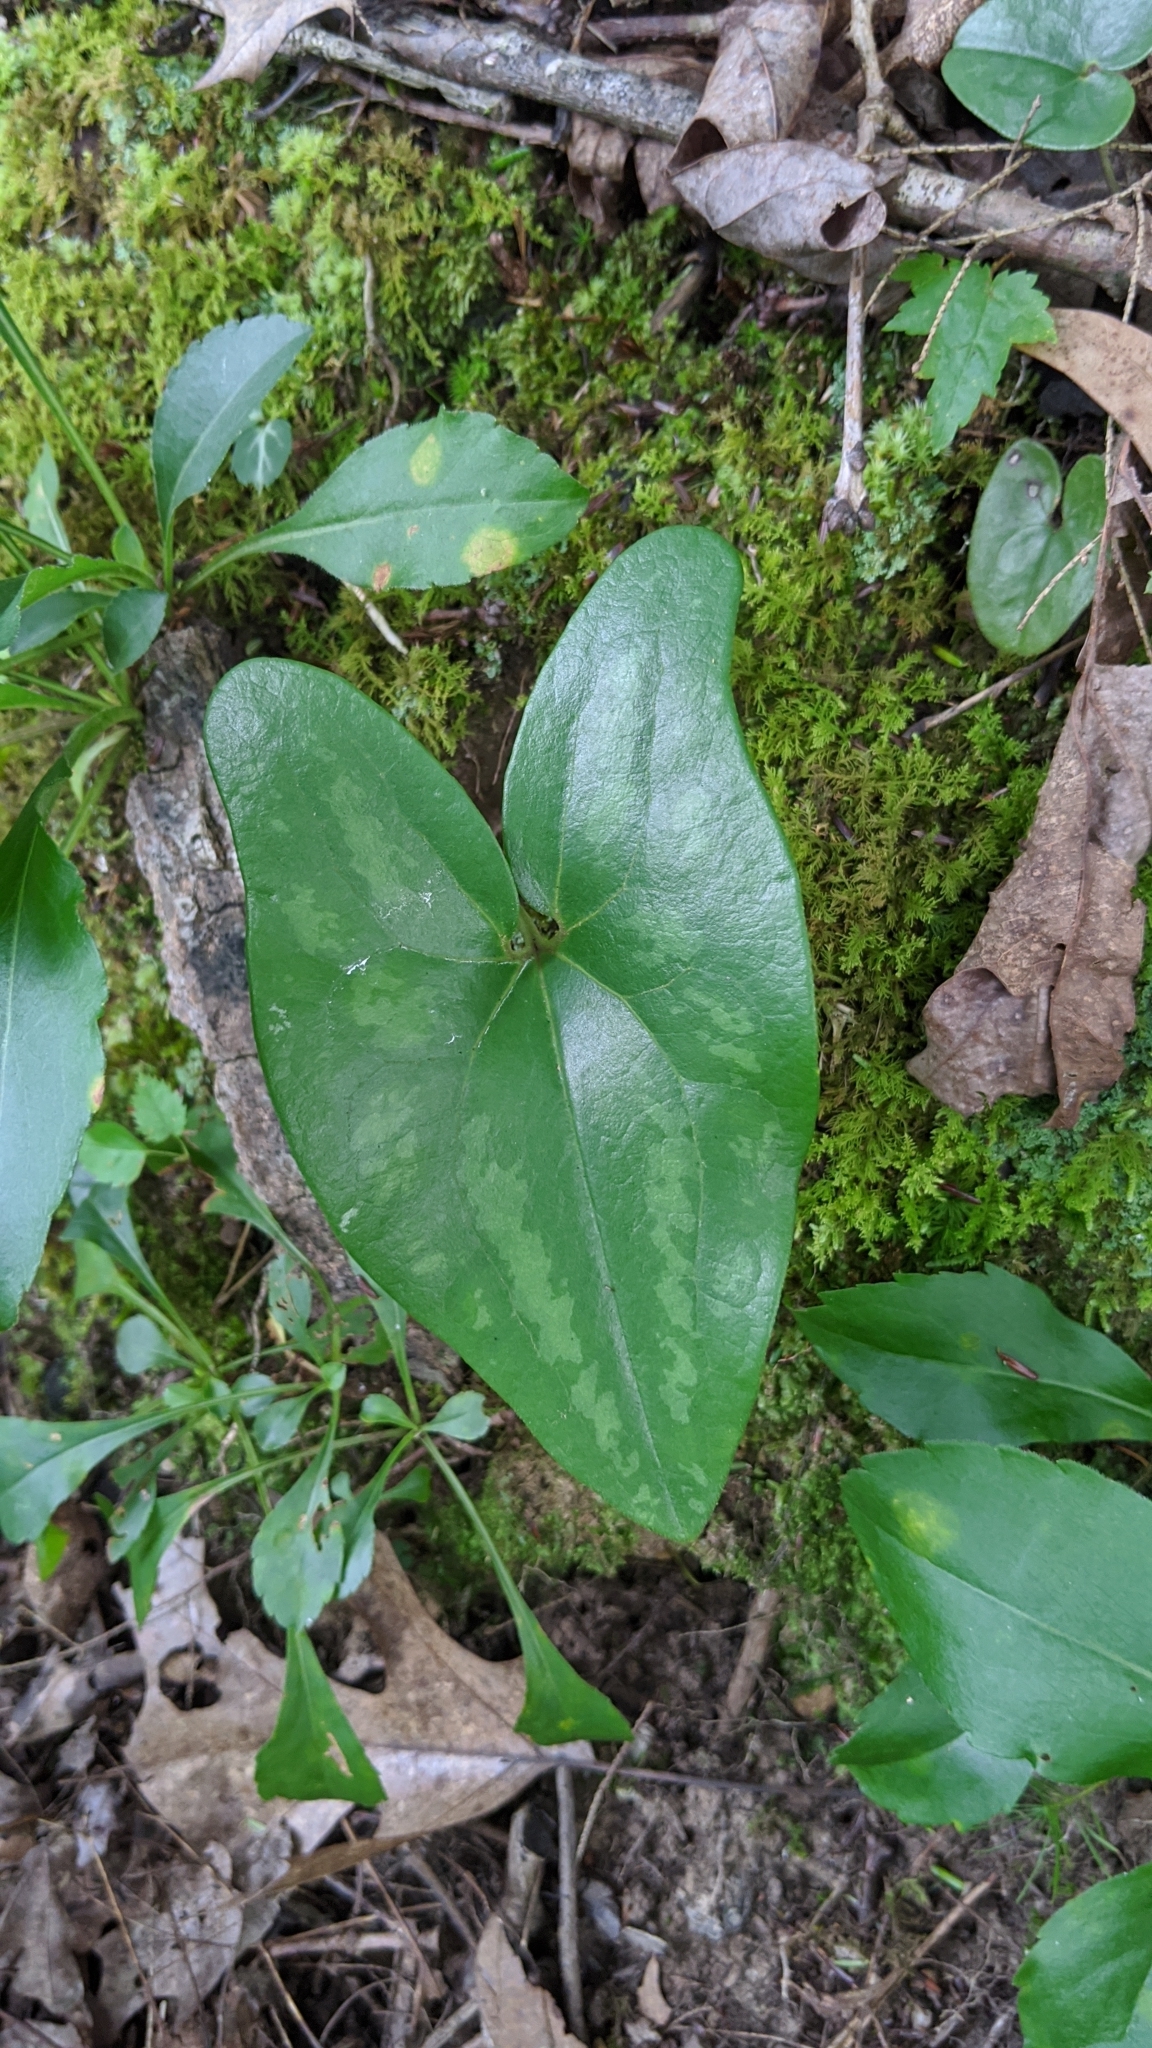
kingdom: Plantae
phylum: Tracheophyta
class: Magnoliopsida
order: Piperales
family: Aristolochiaceae
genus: Hexastylis
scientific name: Hexastylis arifolia
